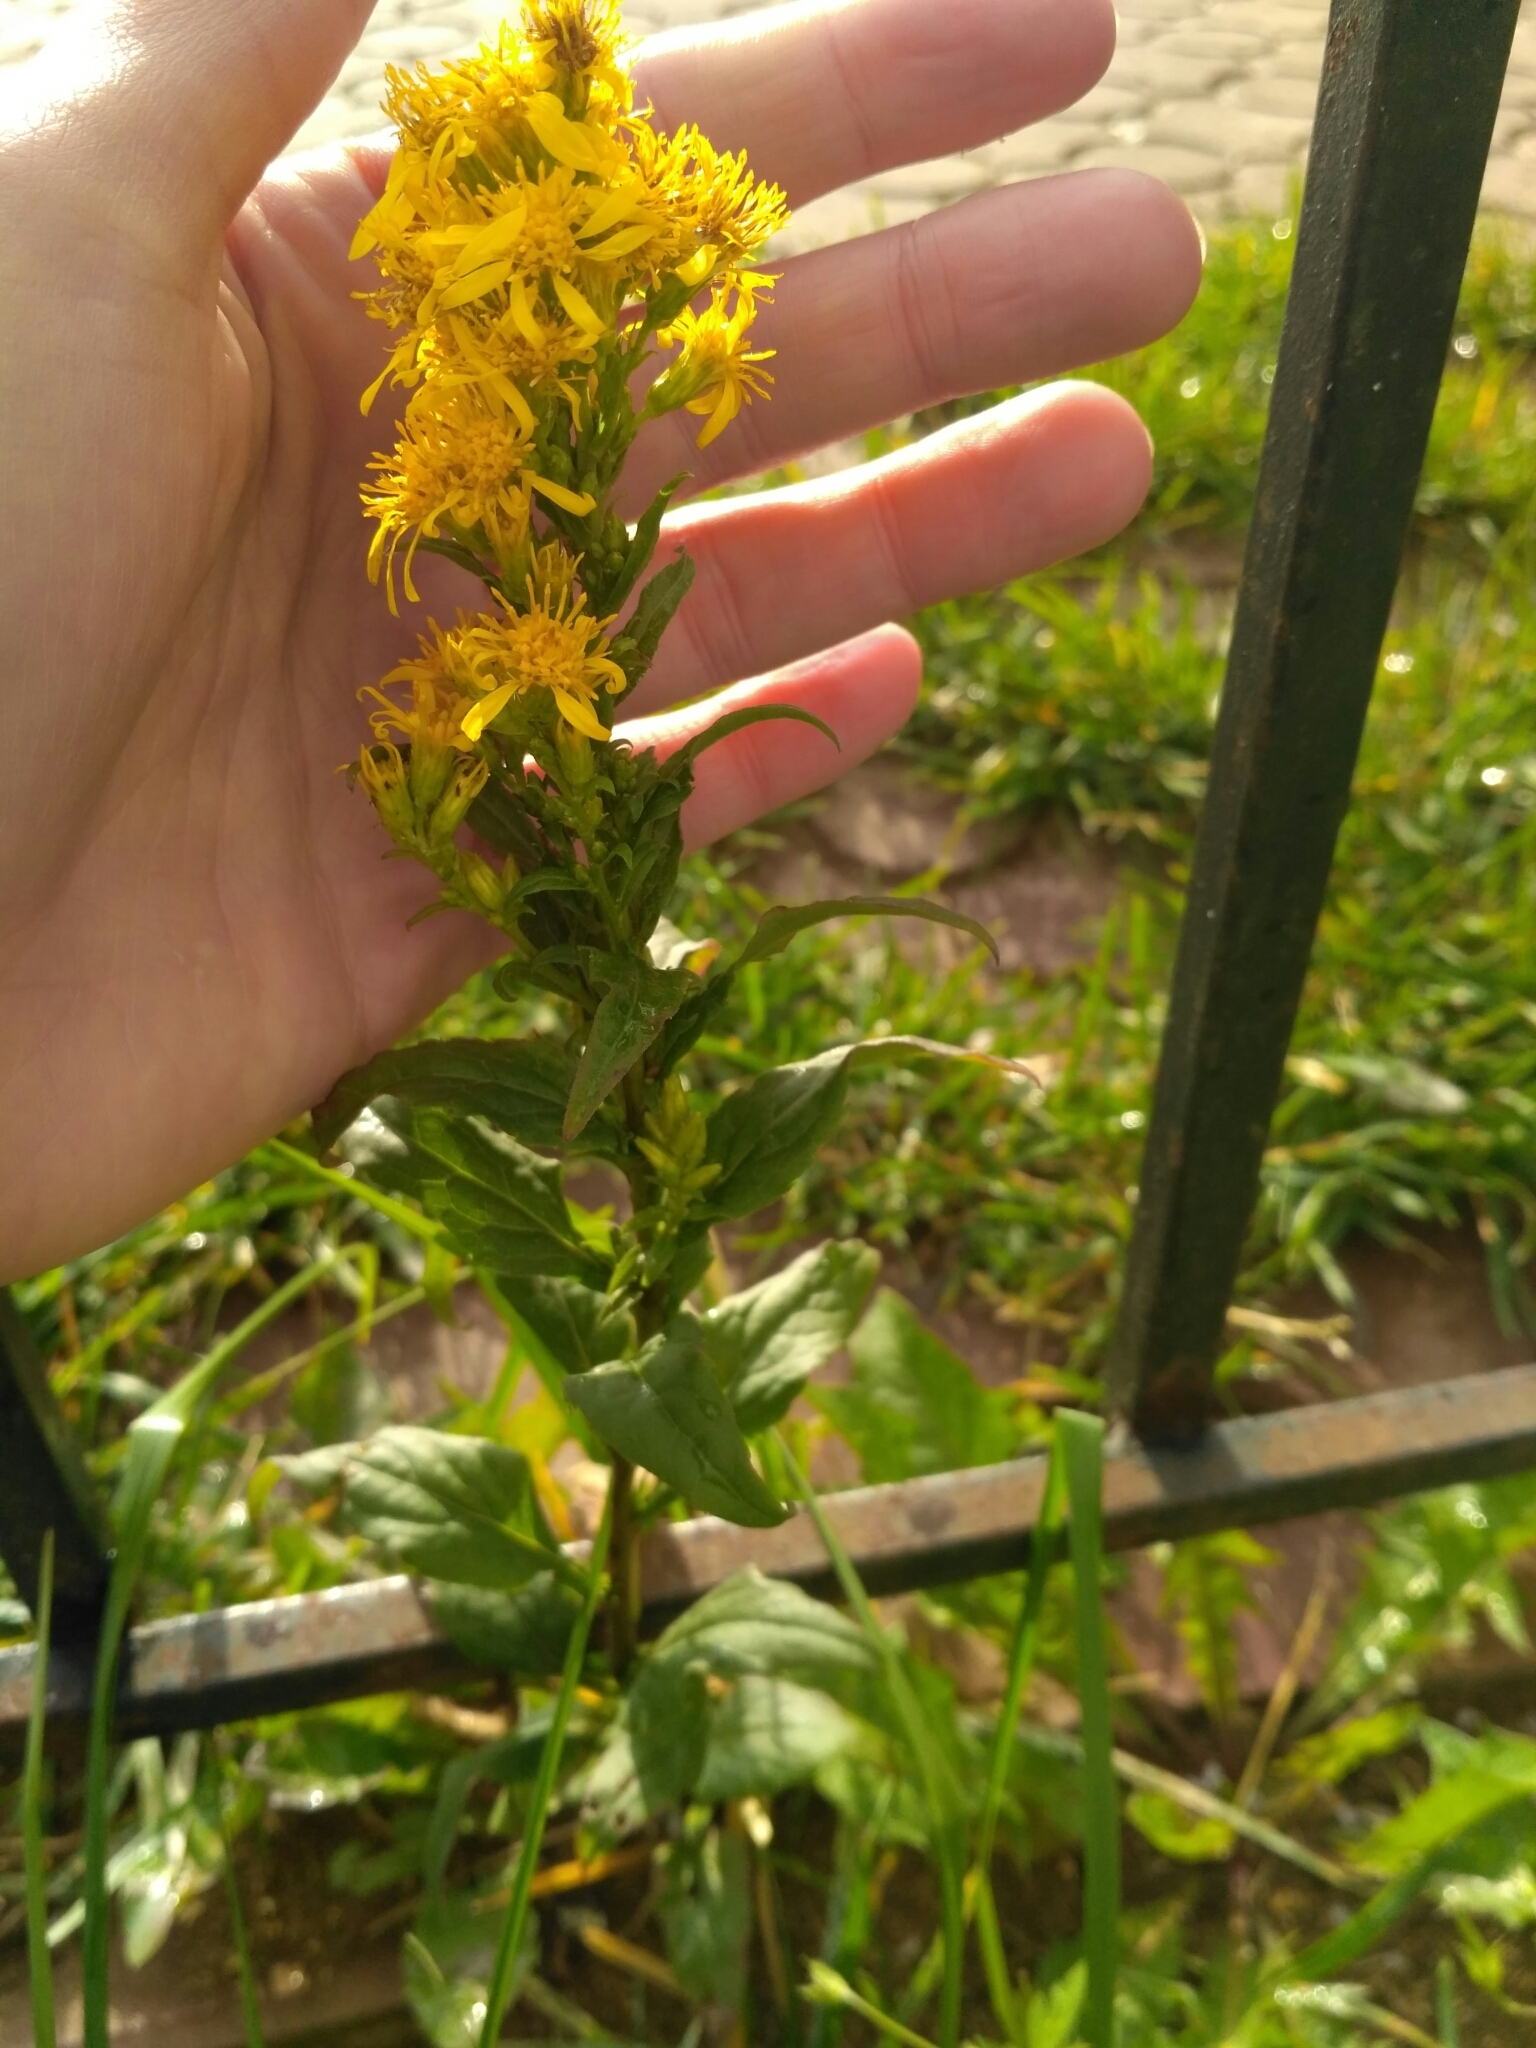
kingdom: Plantae
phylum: Tracheophyta
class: Magnoliopsida
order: Asterales
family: Asteraceae
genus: Solidago
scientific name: Solidago virgaurea
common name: Goldenrod
